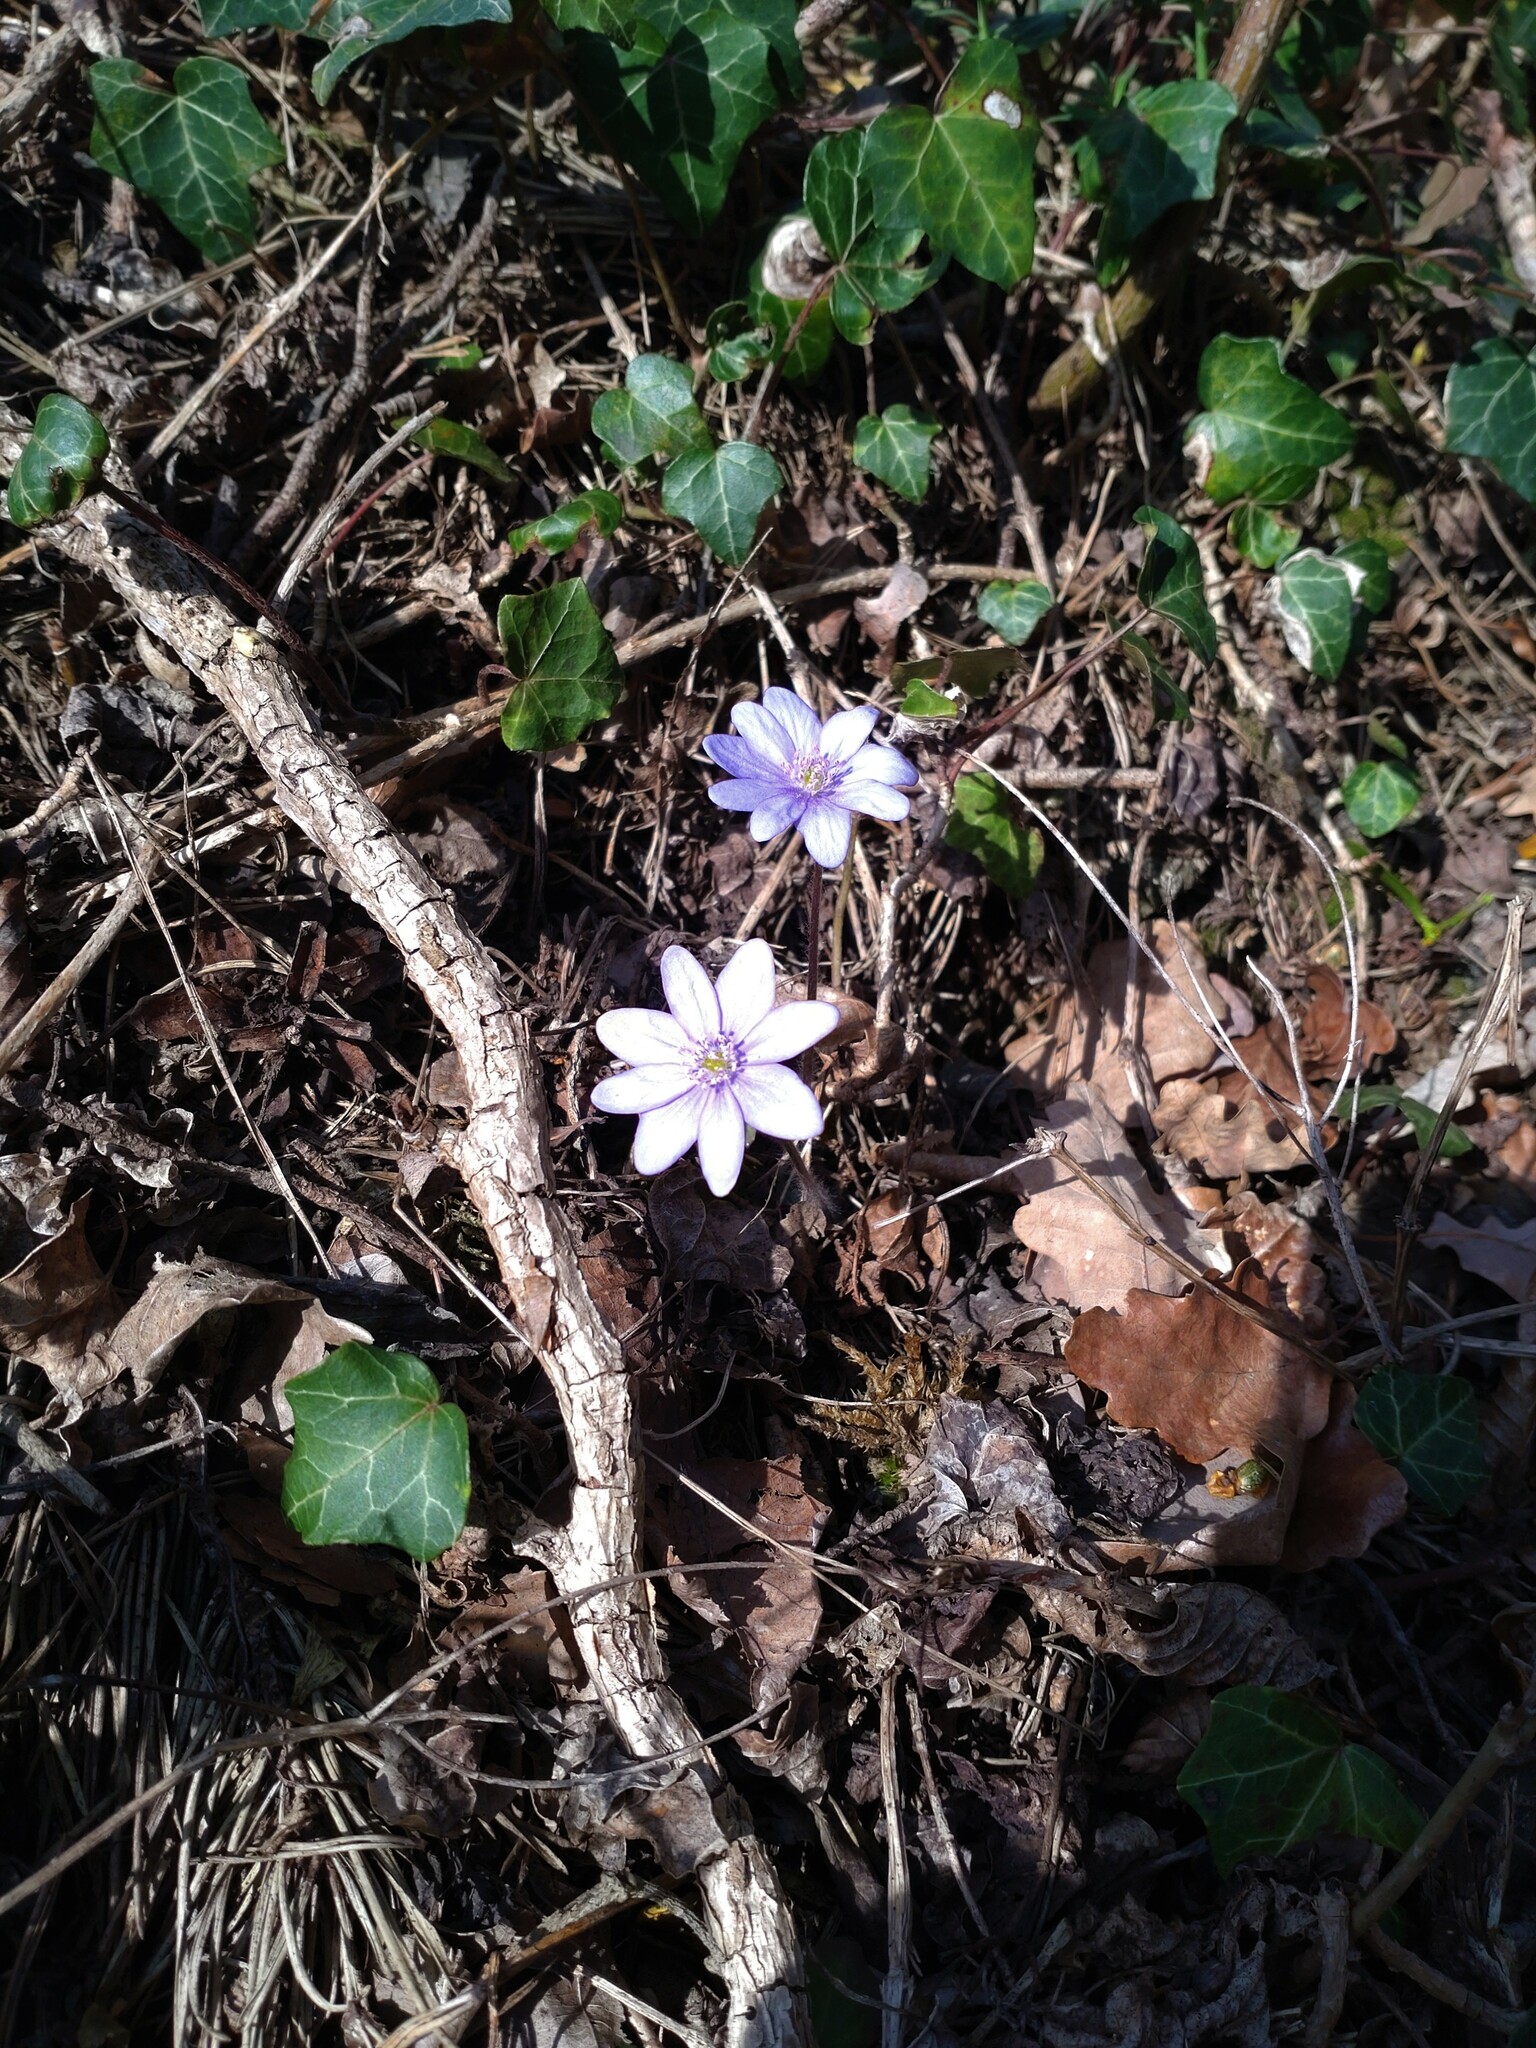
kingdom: Plantae
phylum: Tracheophyta
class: Magnoliopsida
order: Ranunculales
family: Ranunculaceae
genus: Hepatica
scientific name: Hepatica nobilis
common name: Liverleaf
